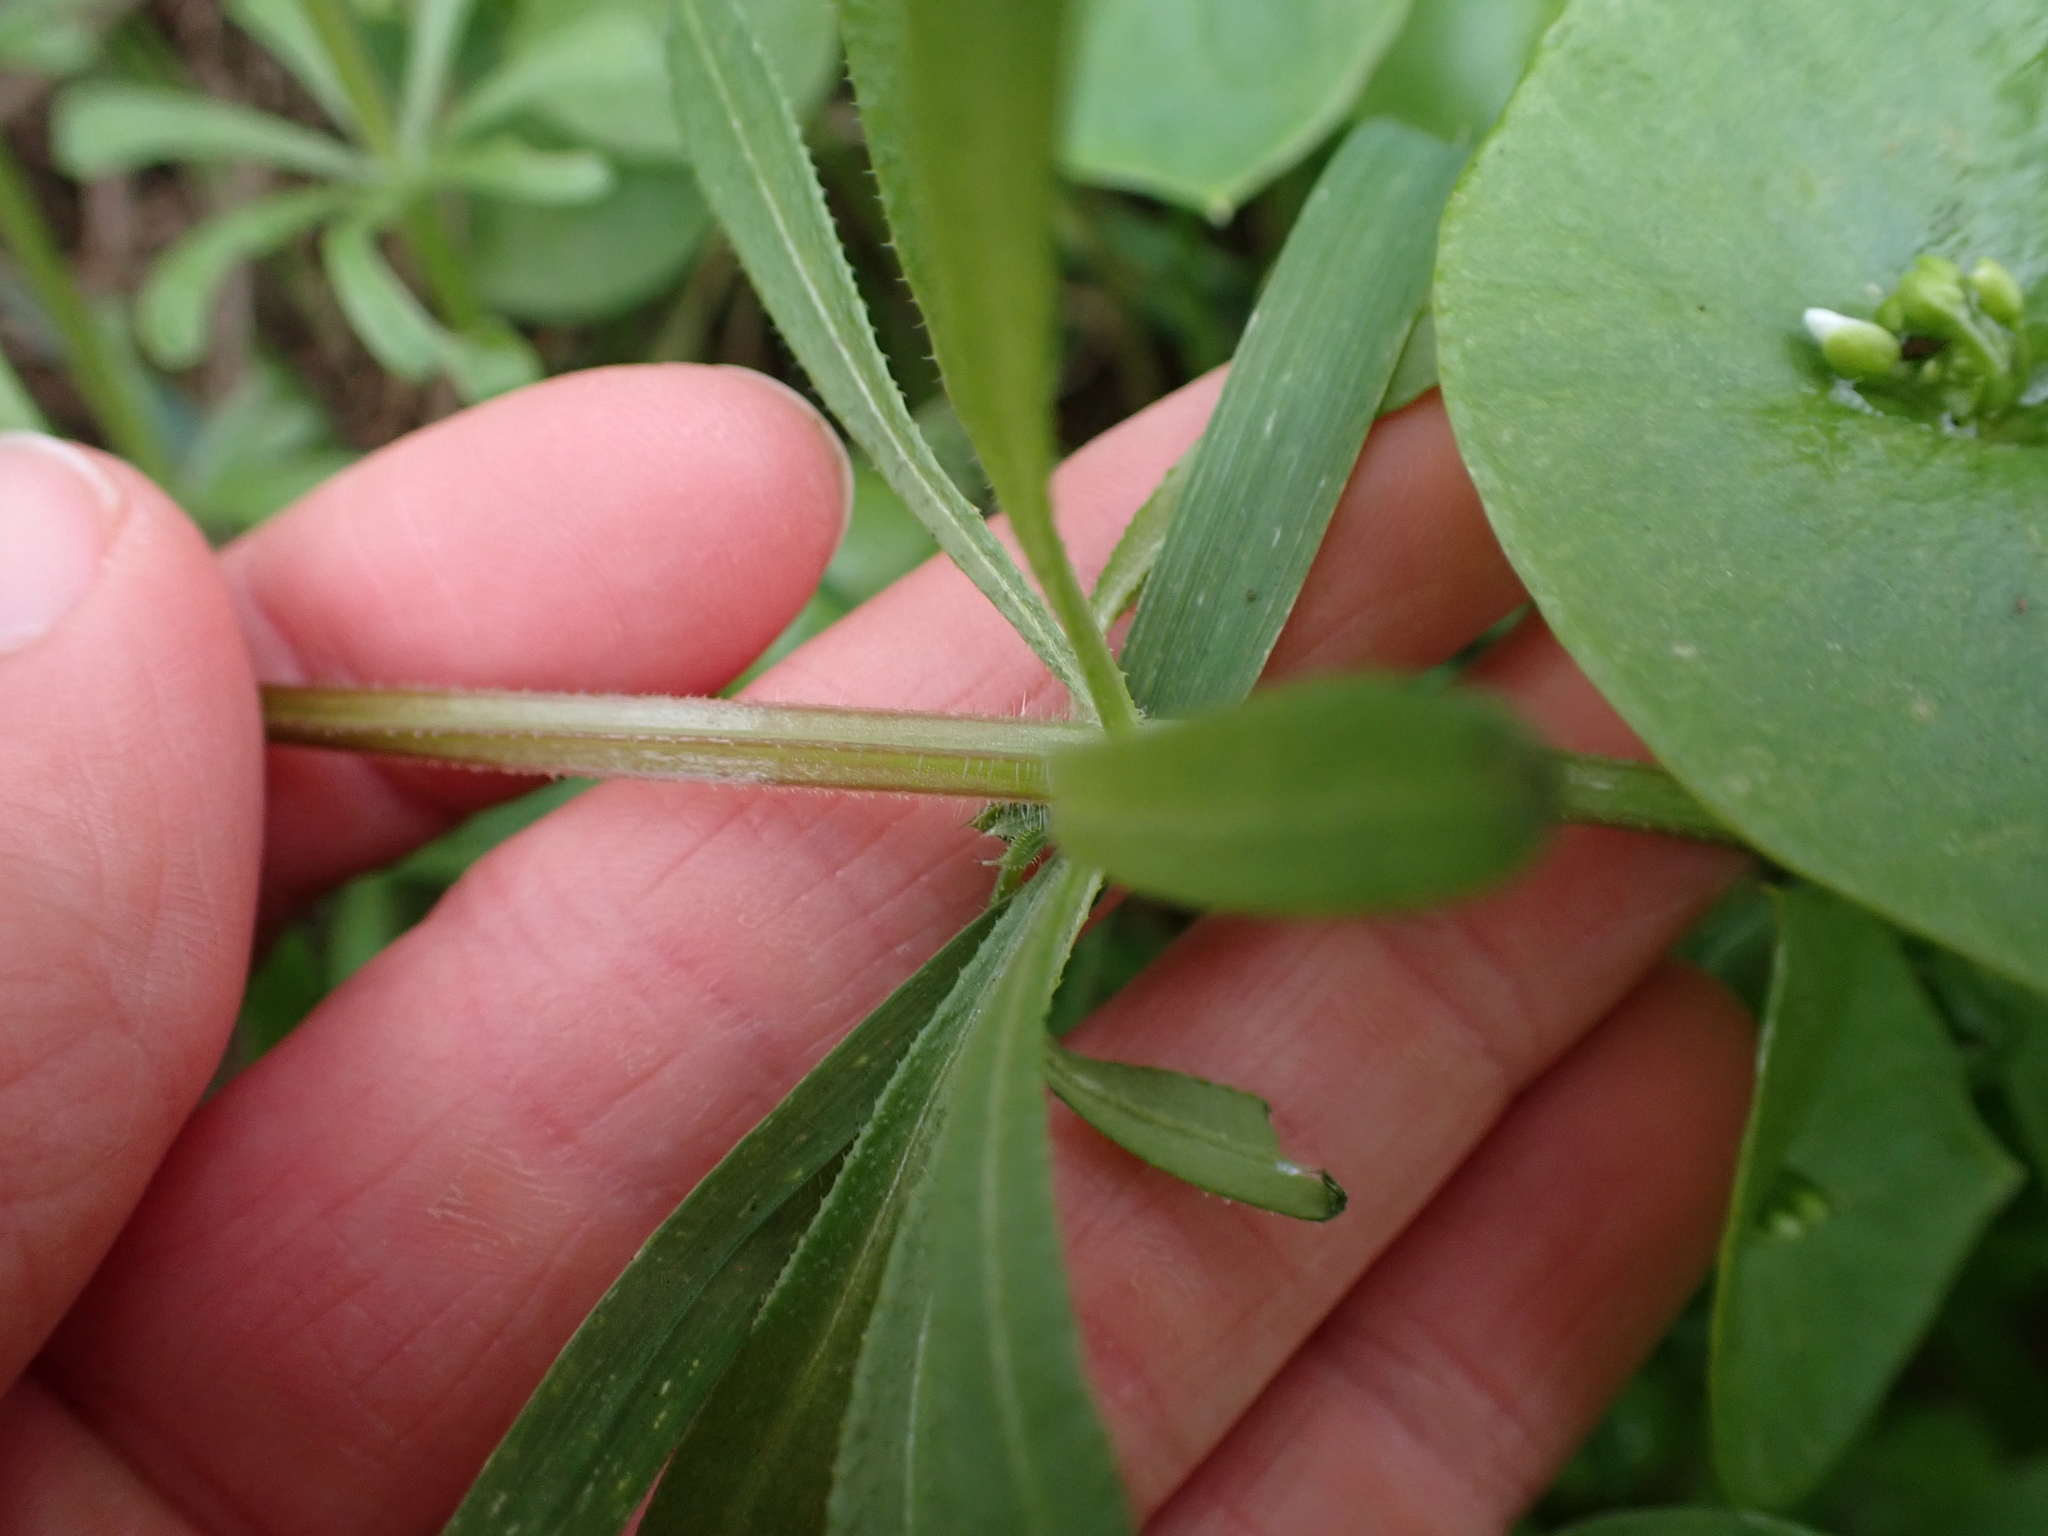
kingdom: Plantae
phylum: Tracheophyta
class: Magnoliopsida
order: Gentianales
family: Rubiaceae
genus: Galium
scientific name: Galium aparine
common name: Cleavers
